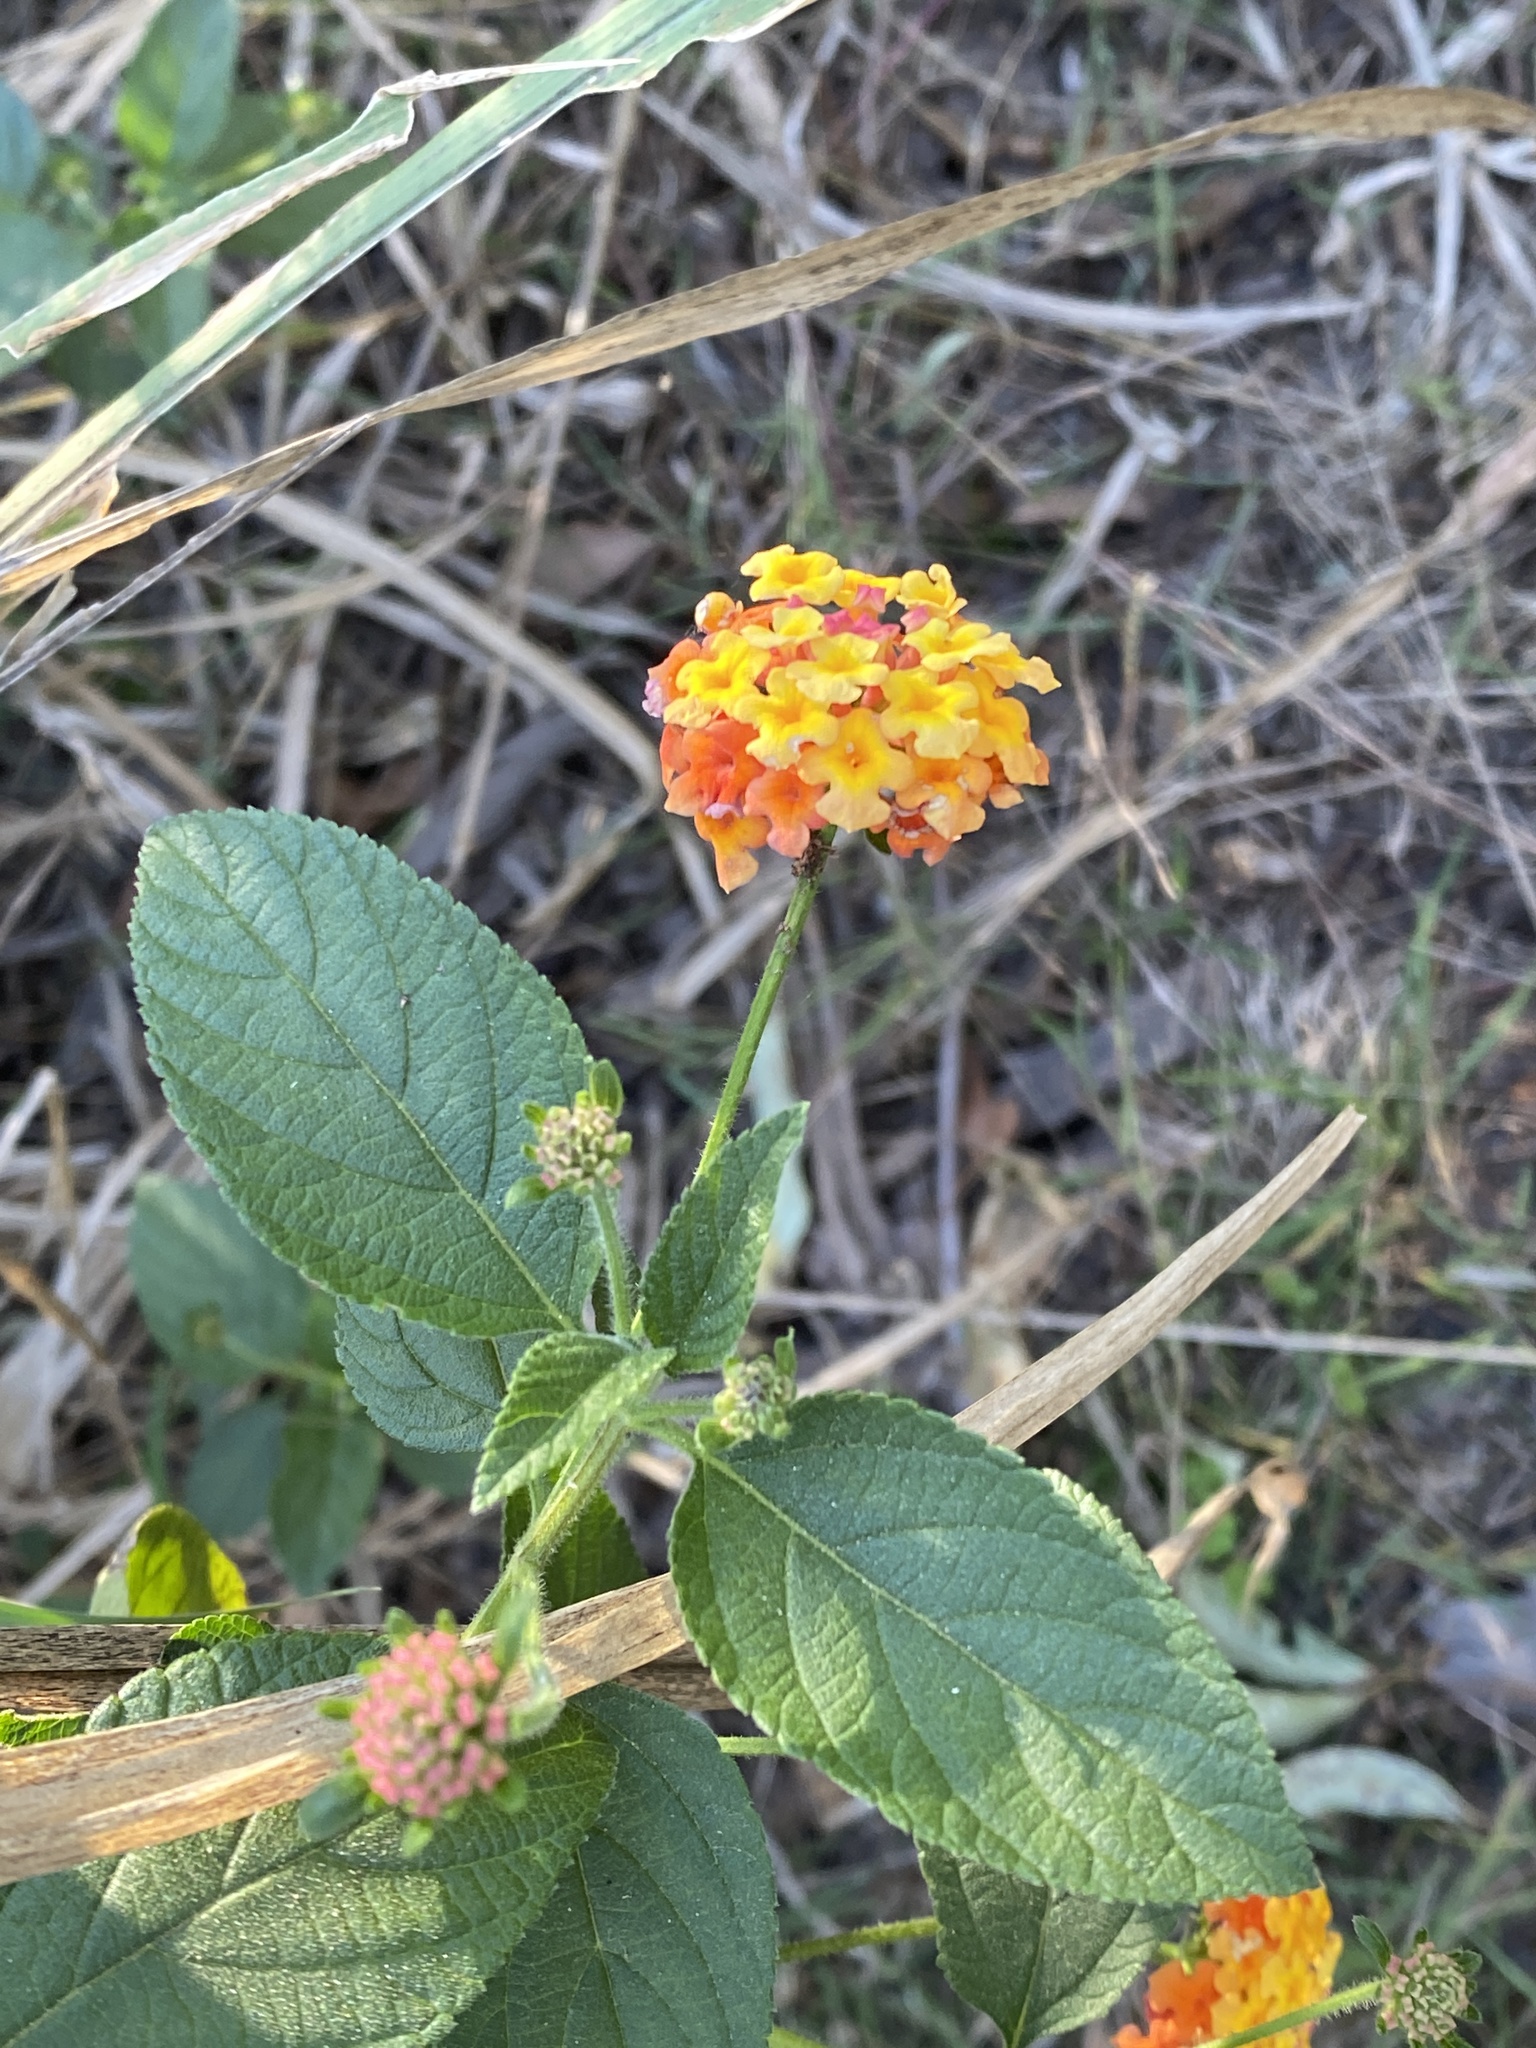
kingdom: Plantae
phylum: Tracheophyta
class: Magnoliopsida
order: Lamiales
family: Verbenaceae
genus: Lantana
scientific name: Lantana camara
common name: Lantana
